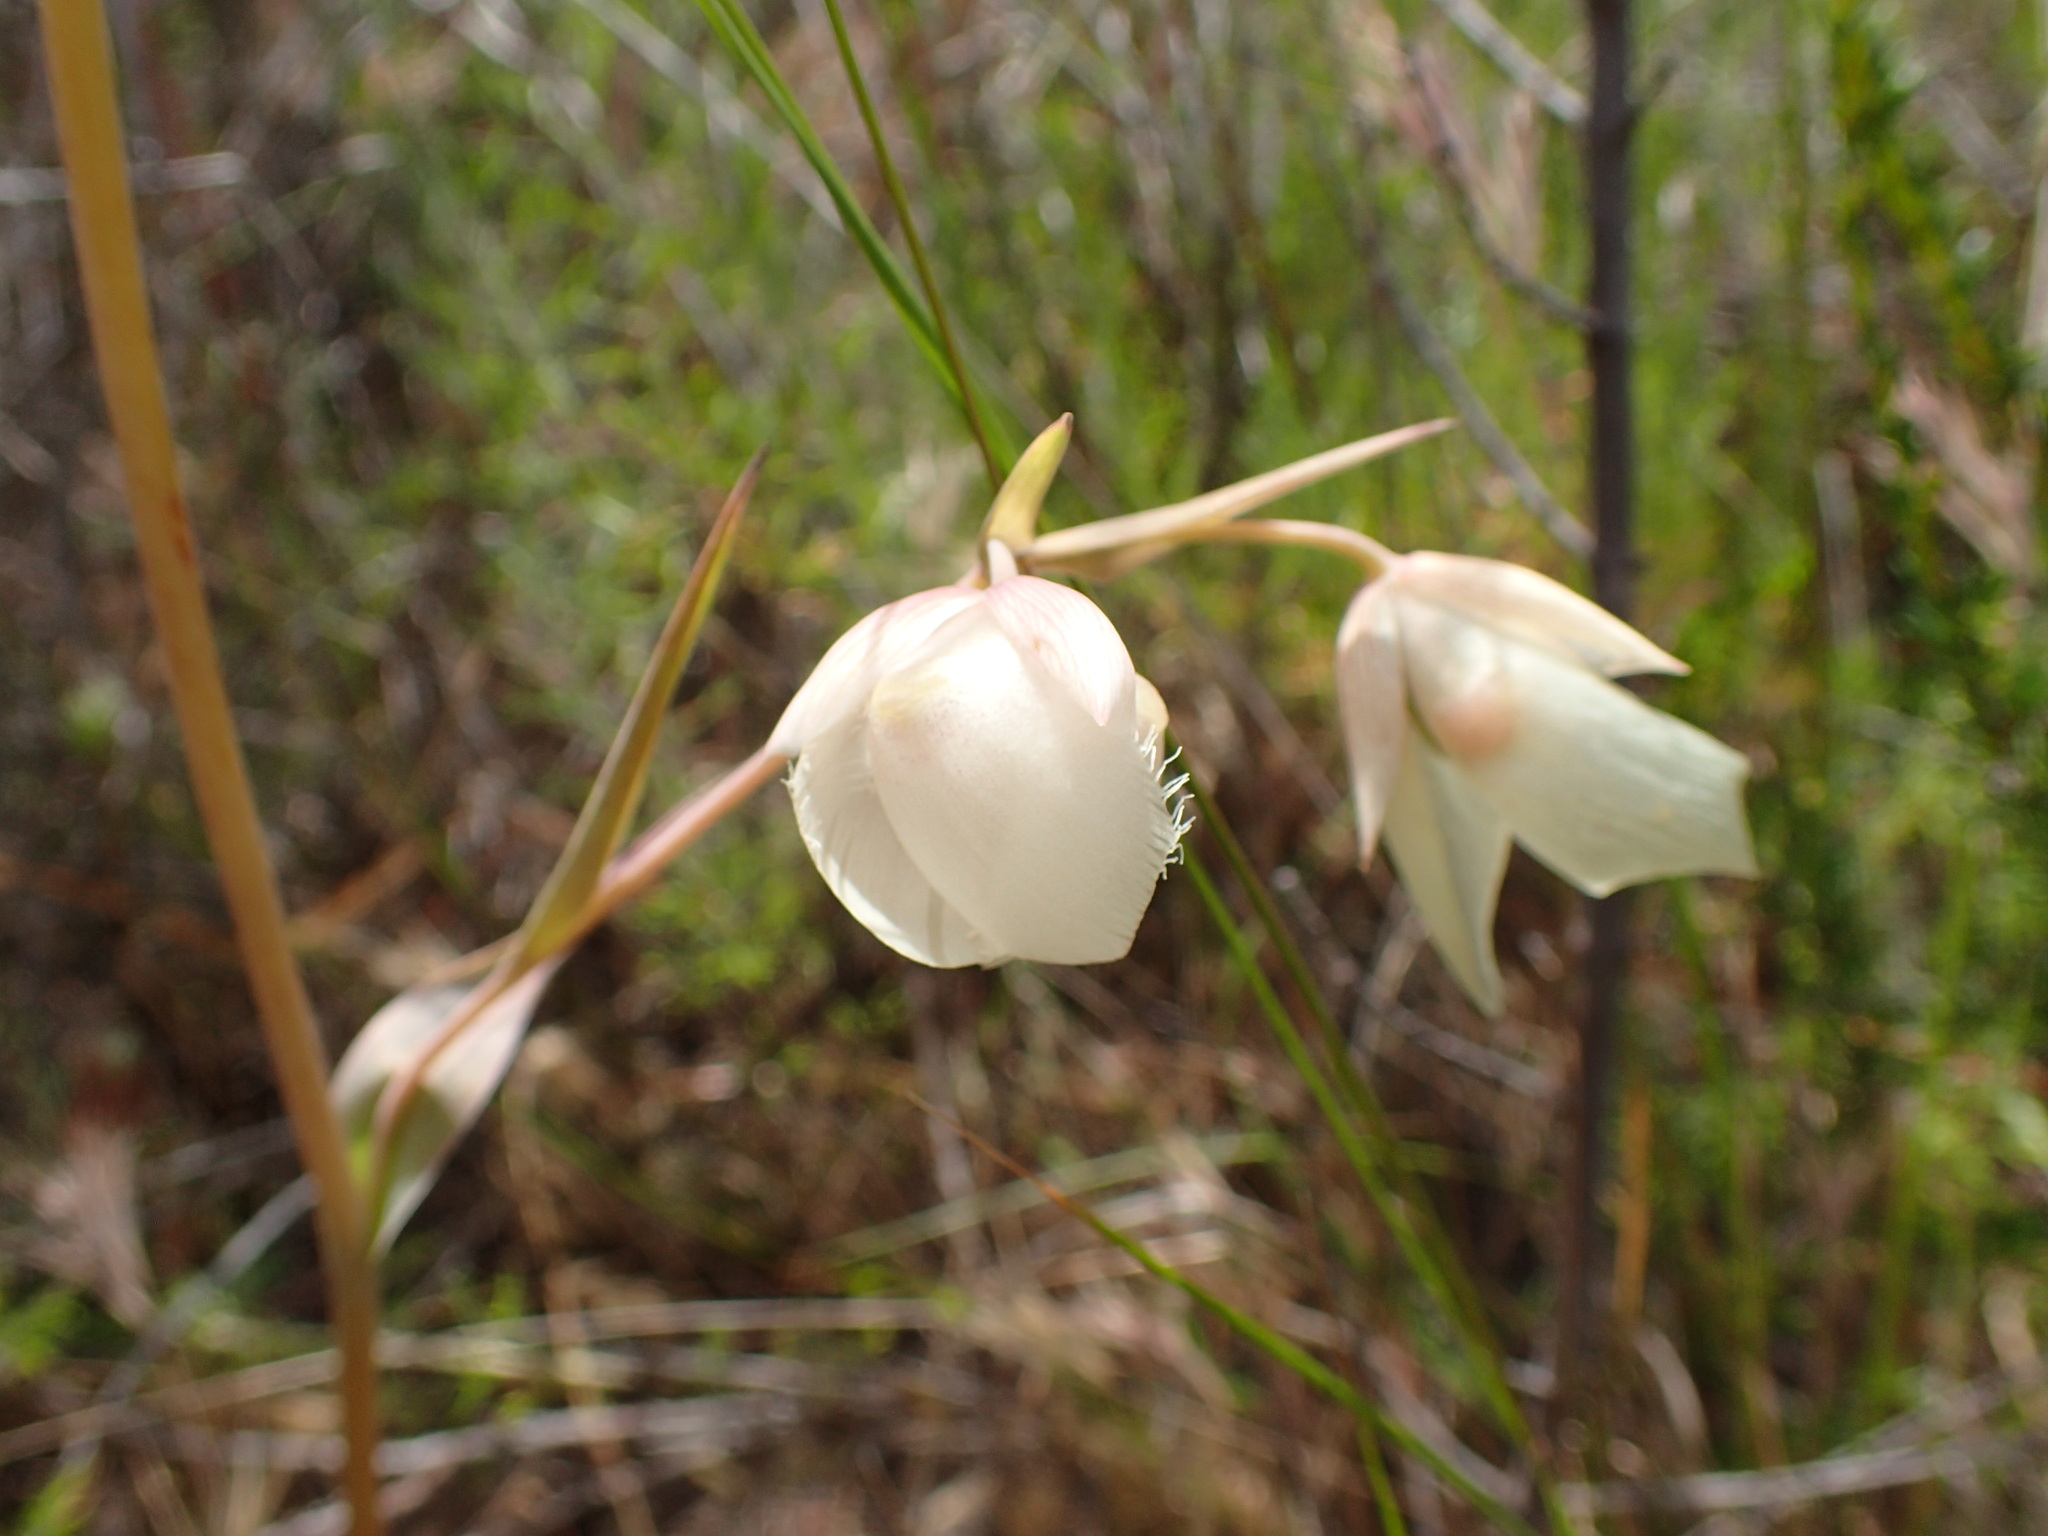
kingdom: Plantae
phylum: Tracheophyta
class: Liliopsida
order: Liliales
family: Liliaceae
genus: Calochortus
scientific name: Calochortus albus
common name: Fairy-lantern
